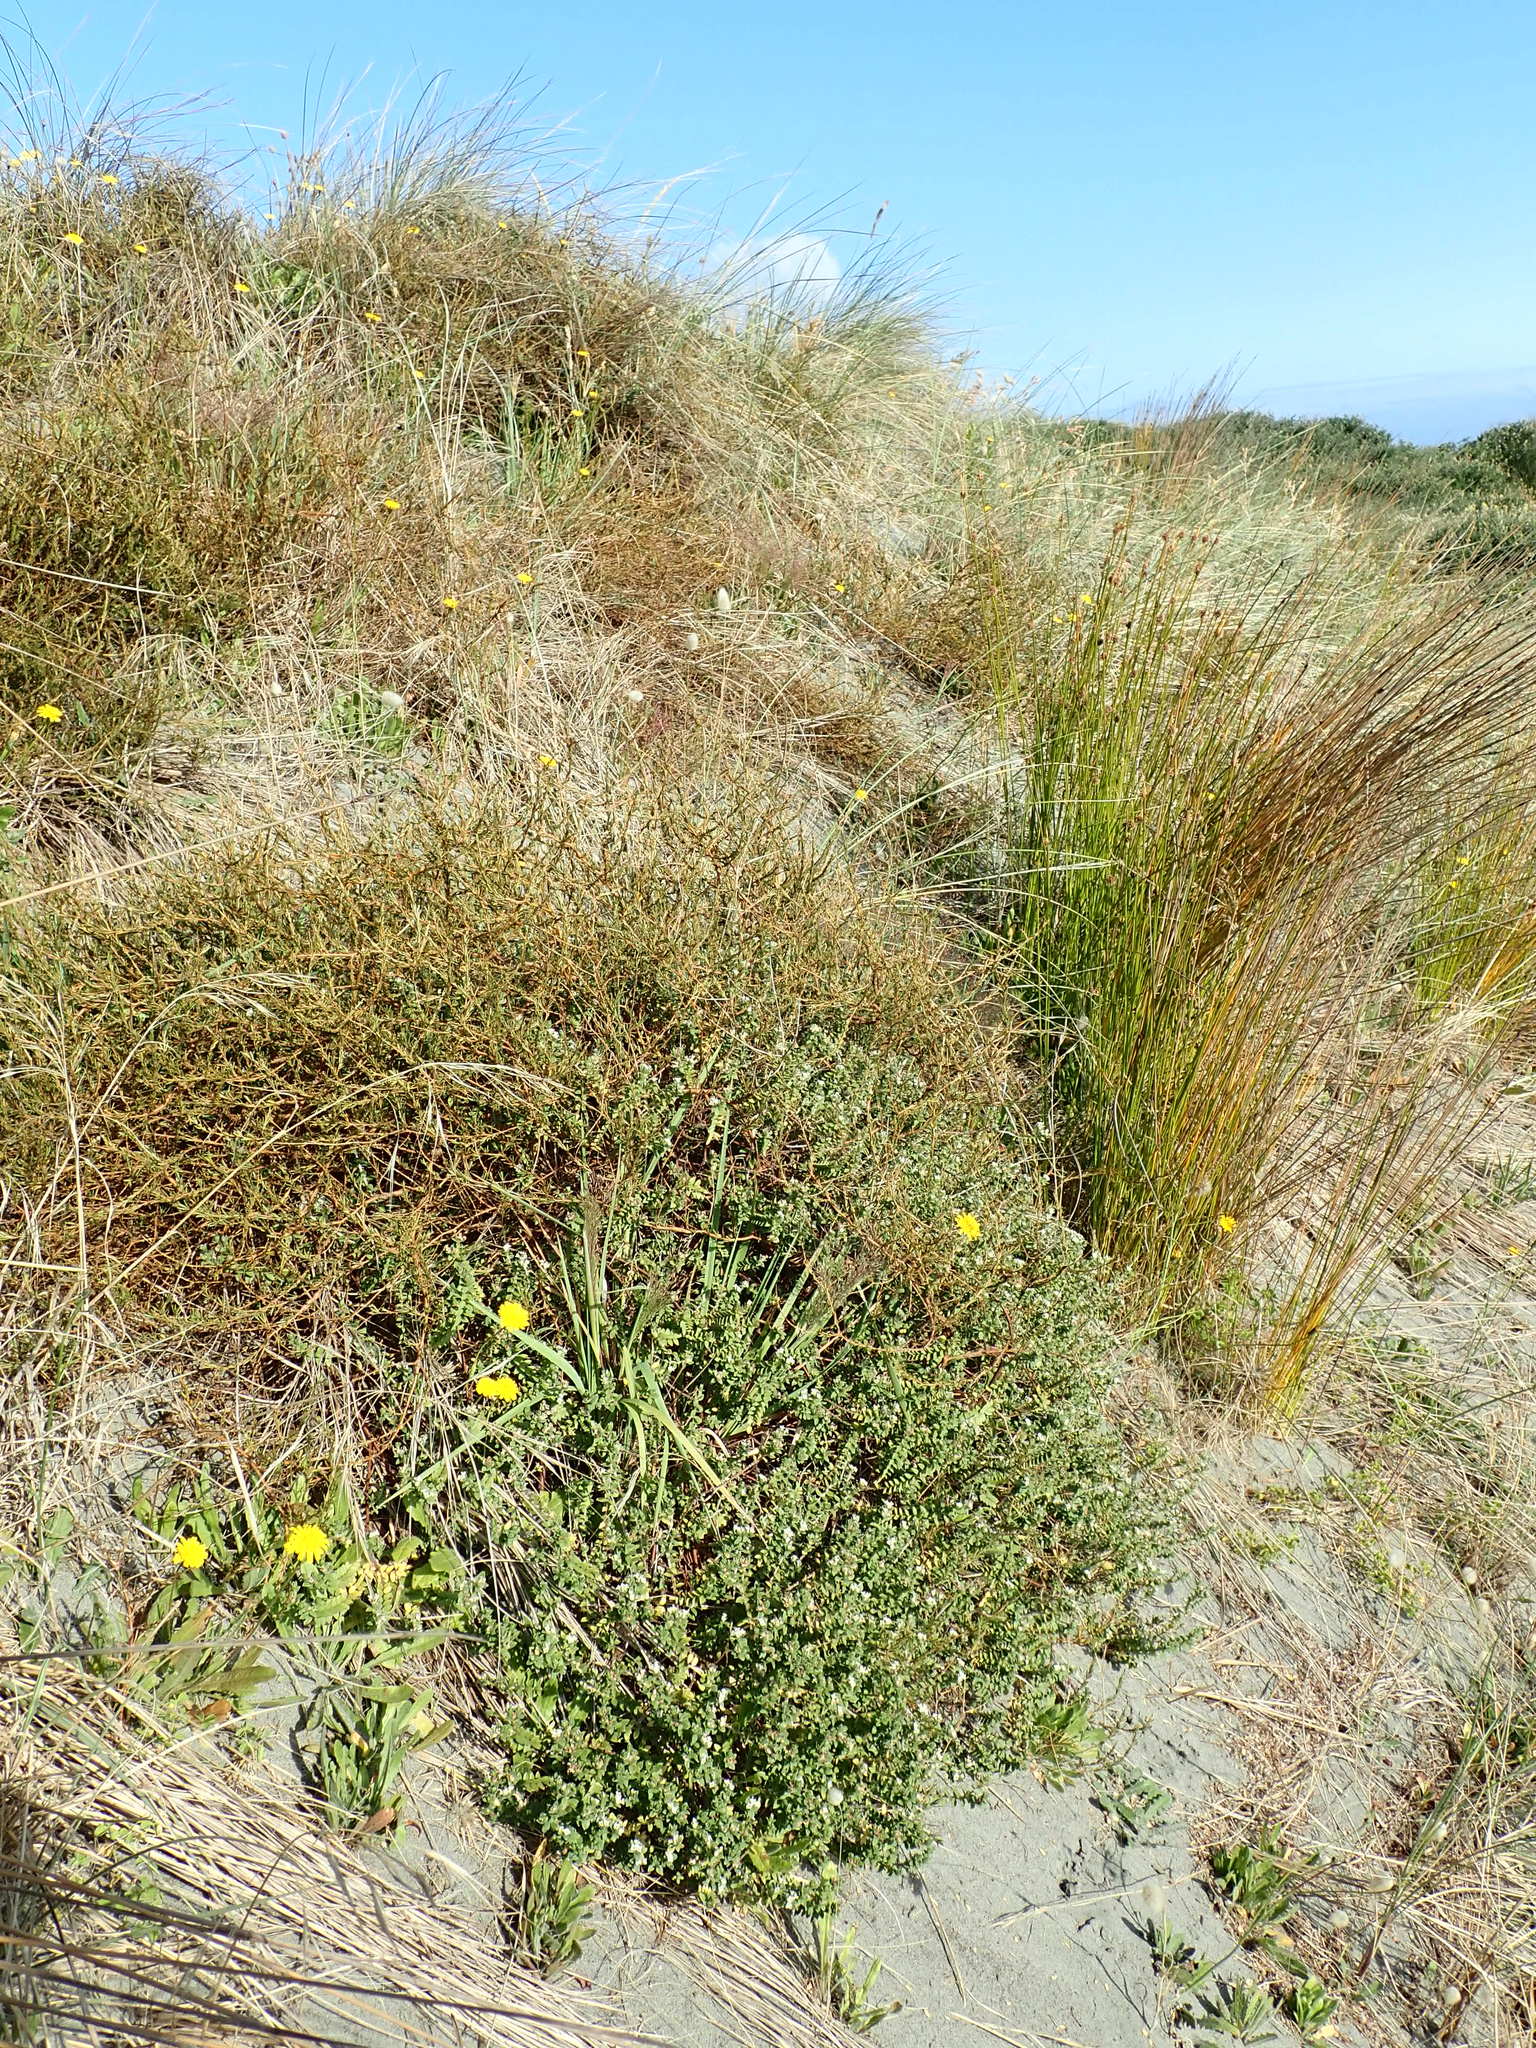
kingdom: Plantae
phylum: Tracheophyta
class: Magnoliopsida
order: Malvales
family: Thymelaeaceae
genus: Pimelea
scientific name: Pimelea villosa
